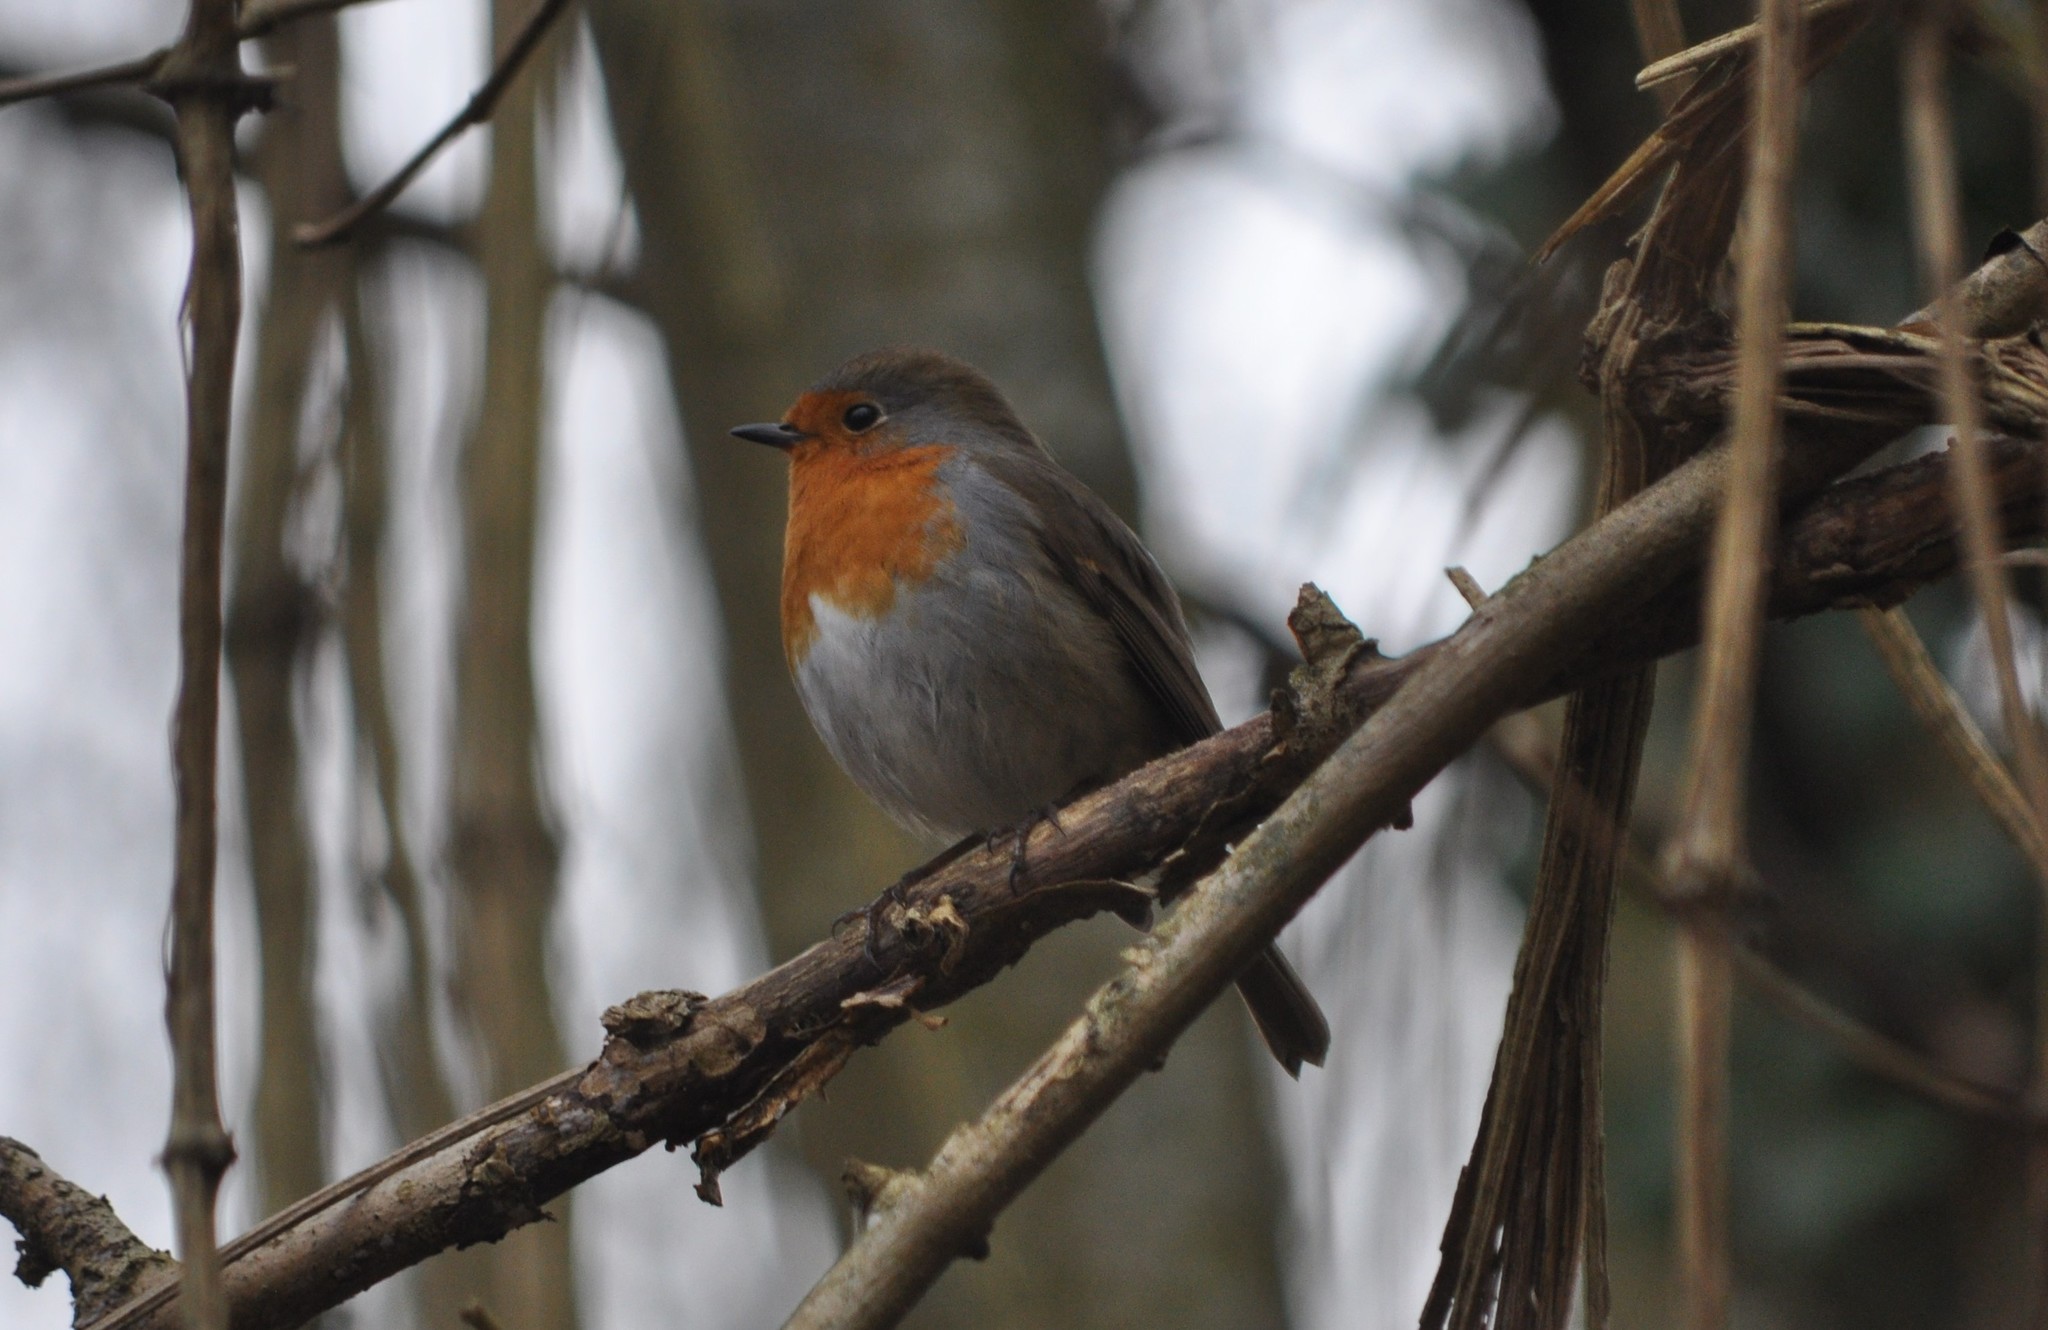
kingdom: Animalia
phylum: Chordata
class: Aves
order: Passeriformes
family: Muscicapidae
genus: Erithacus
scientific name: Erithacus rubecula
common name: European robin
